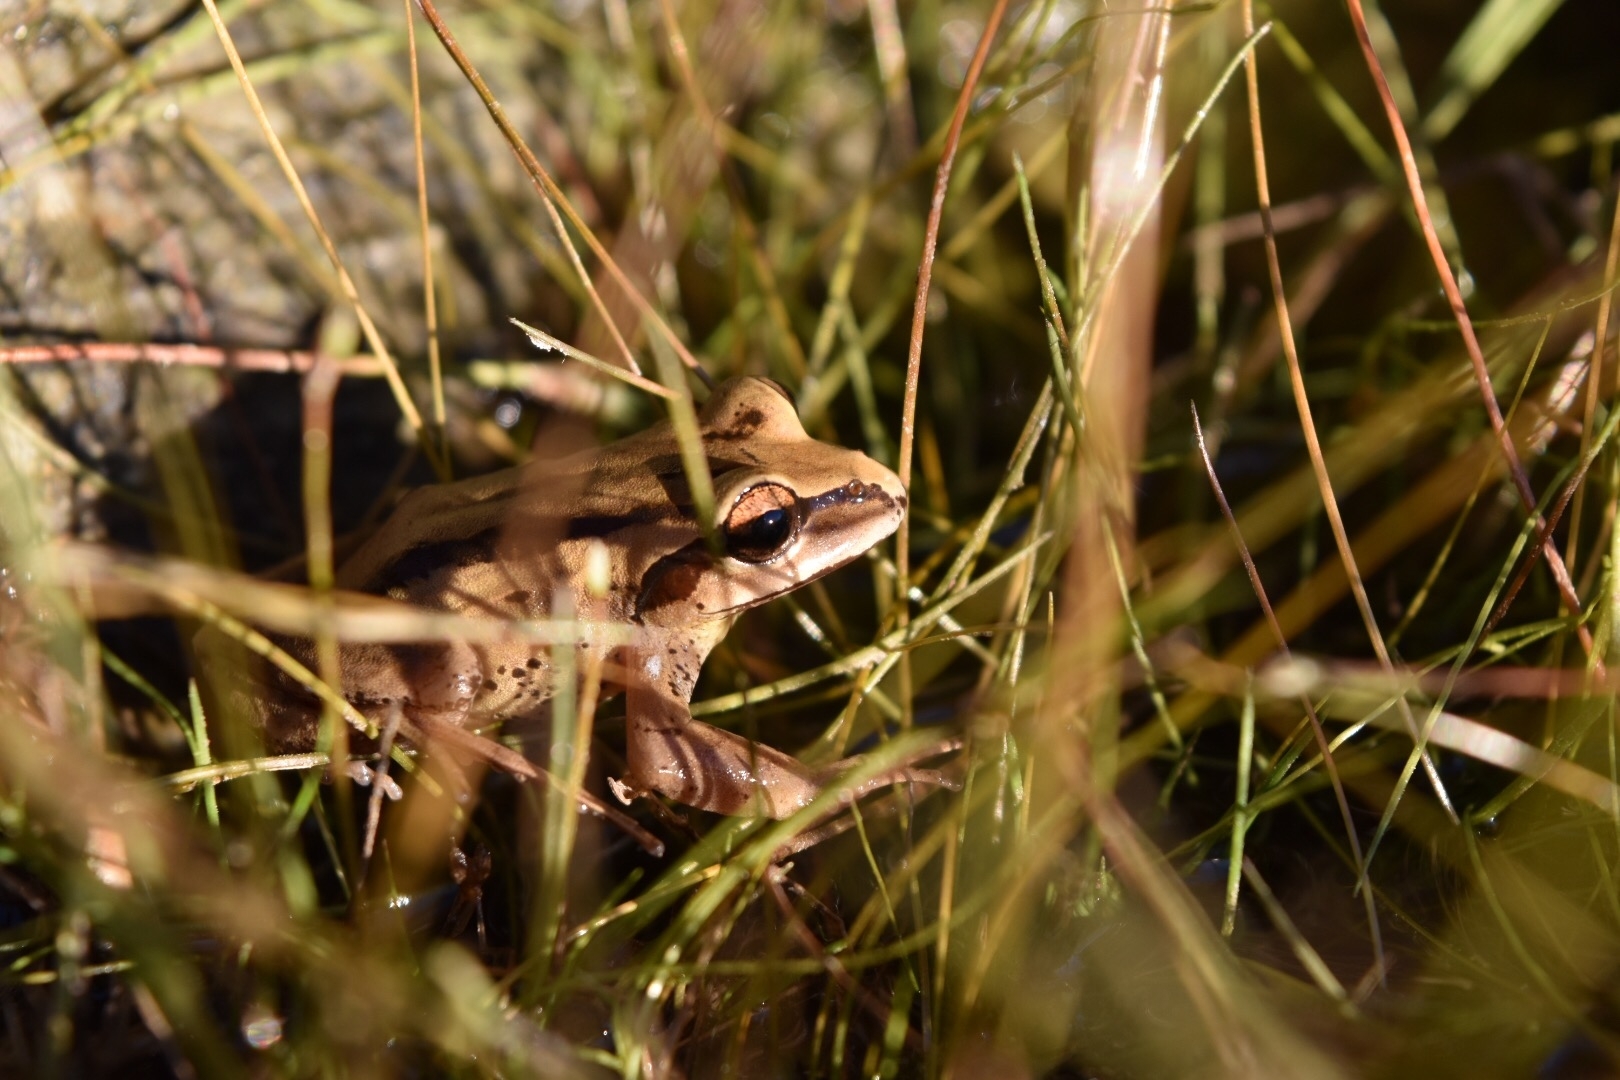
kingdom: Animalia
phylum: Chordata
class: Amphibia
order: Anura
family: Batrachylidae
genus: Batrachyla
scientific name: Batrachyla taeniata
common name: Banded wood frog
